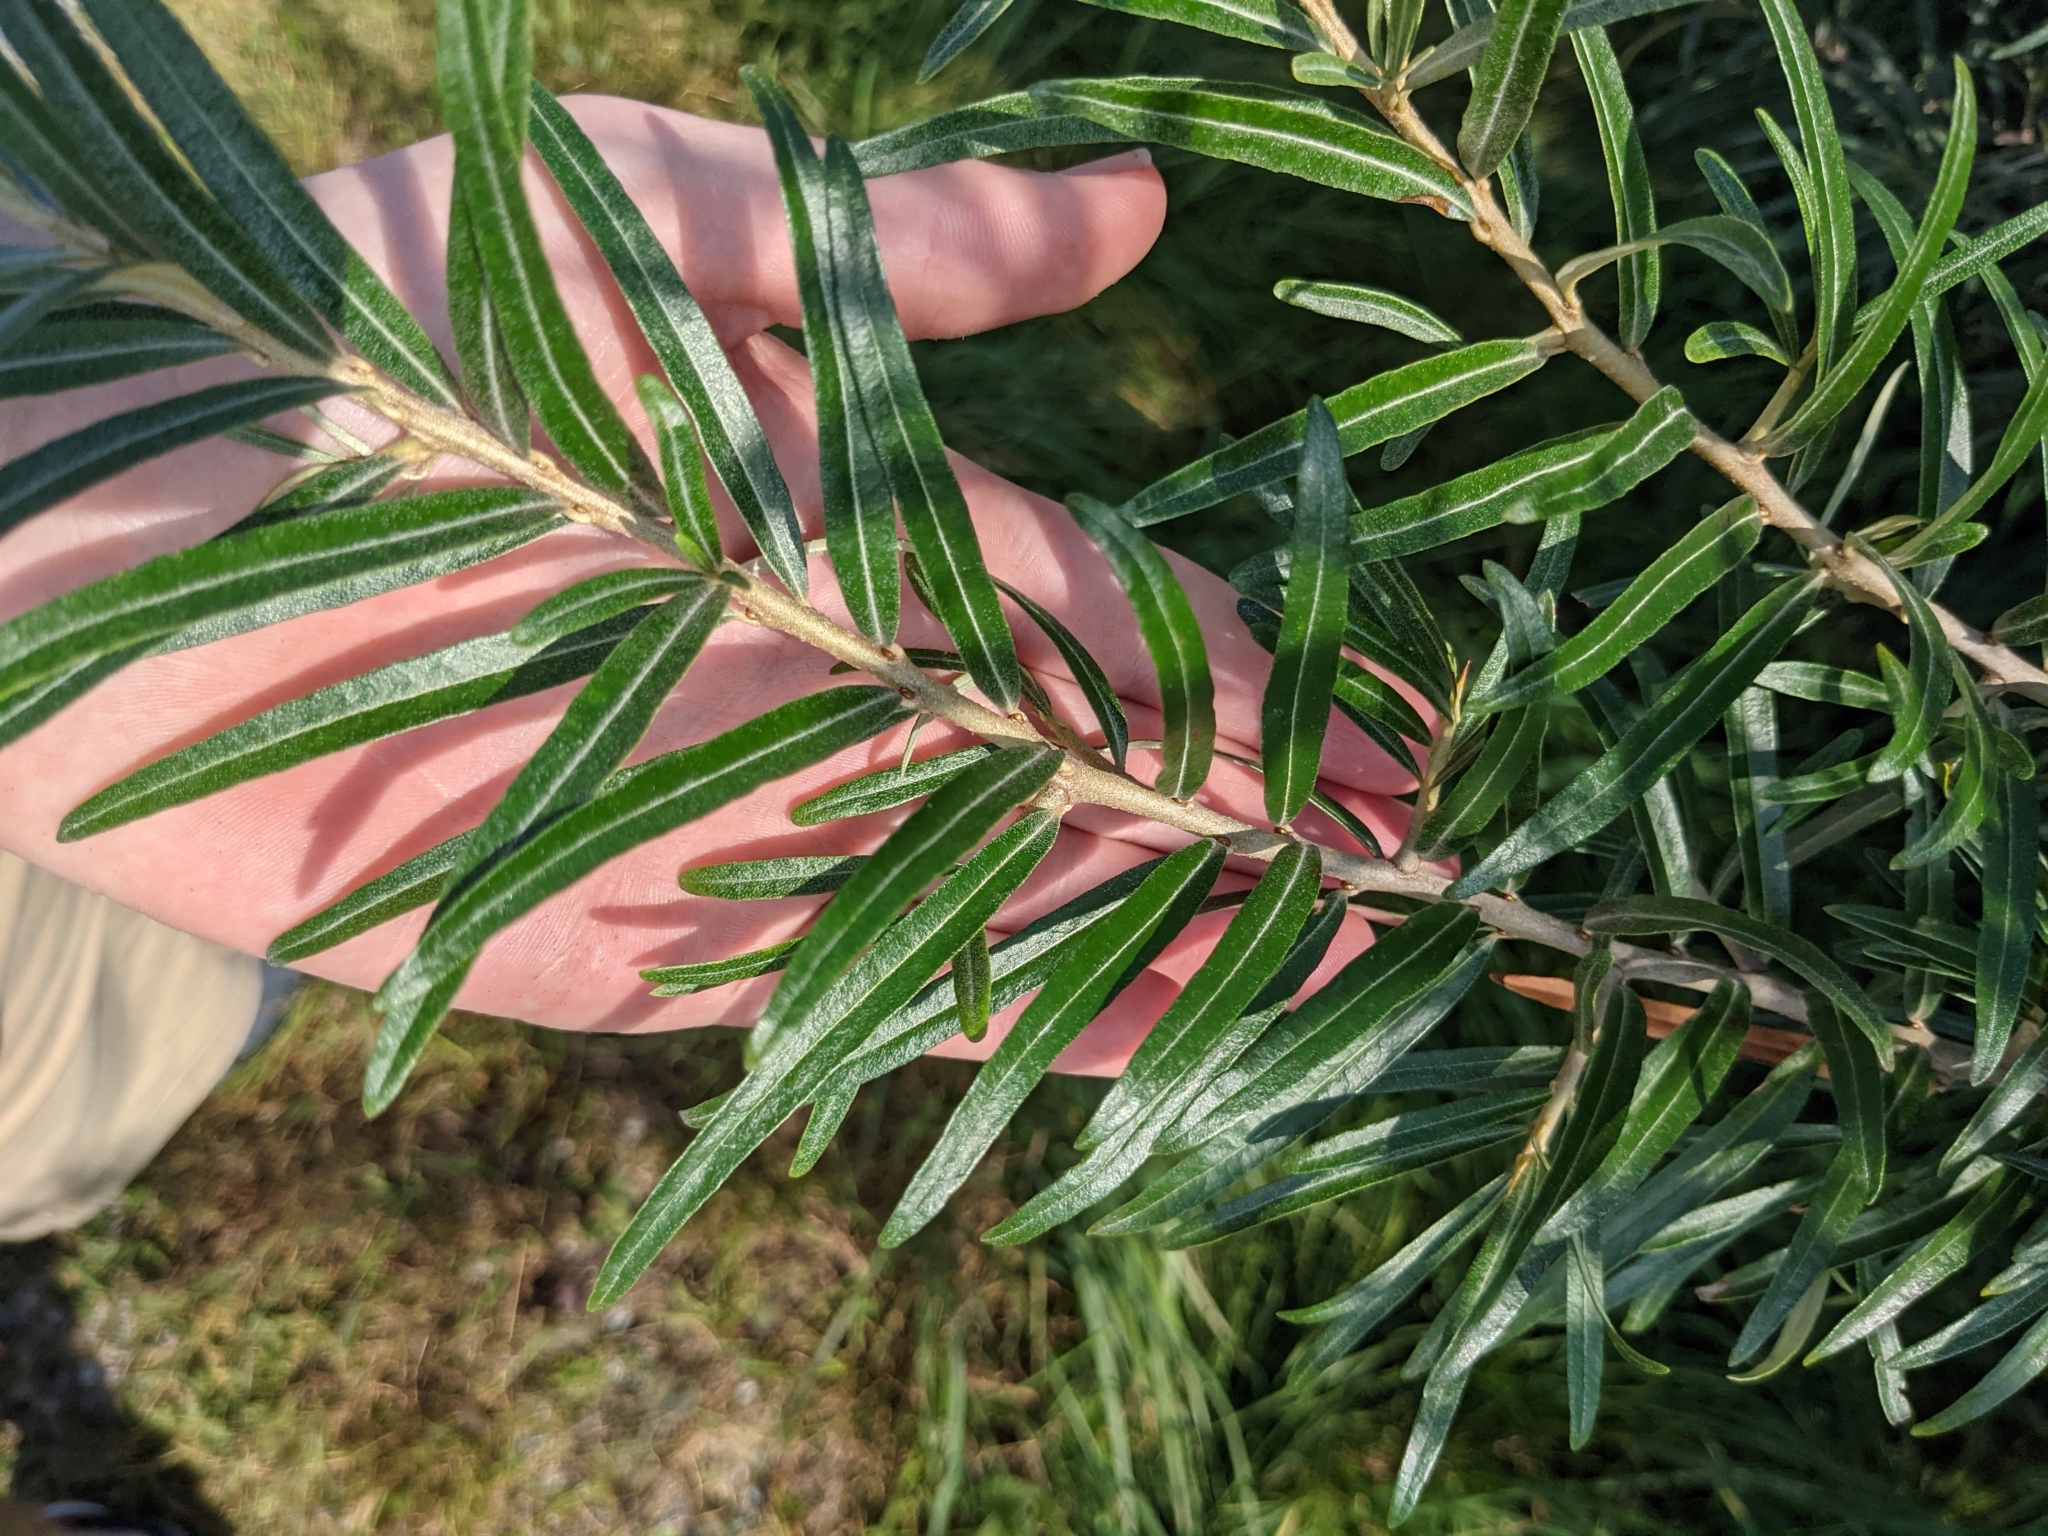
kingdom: Plantae
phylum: Tracheophyta
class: Magnoliopsida
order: Rosales
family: Elaeagnaceae
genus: Hippophae
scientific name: Hippophae rhamnoides
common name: Sea-buckthorn
